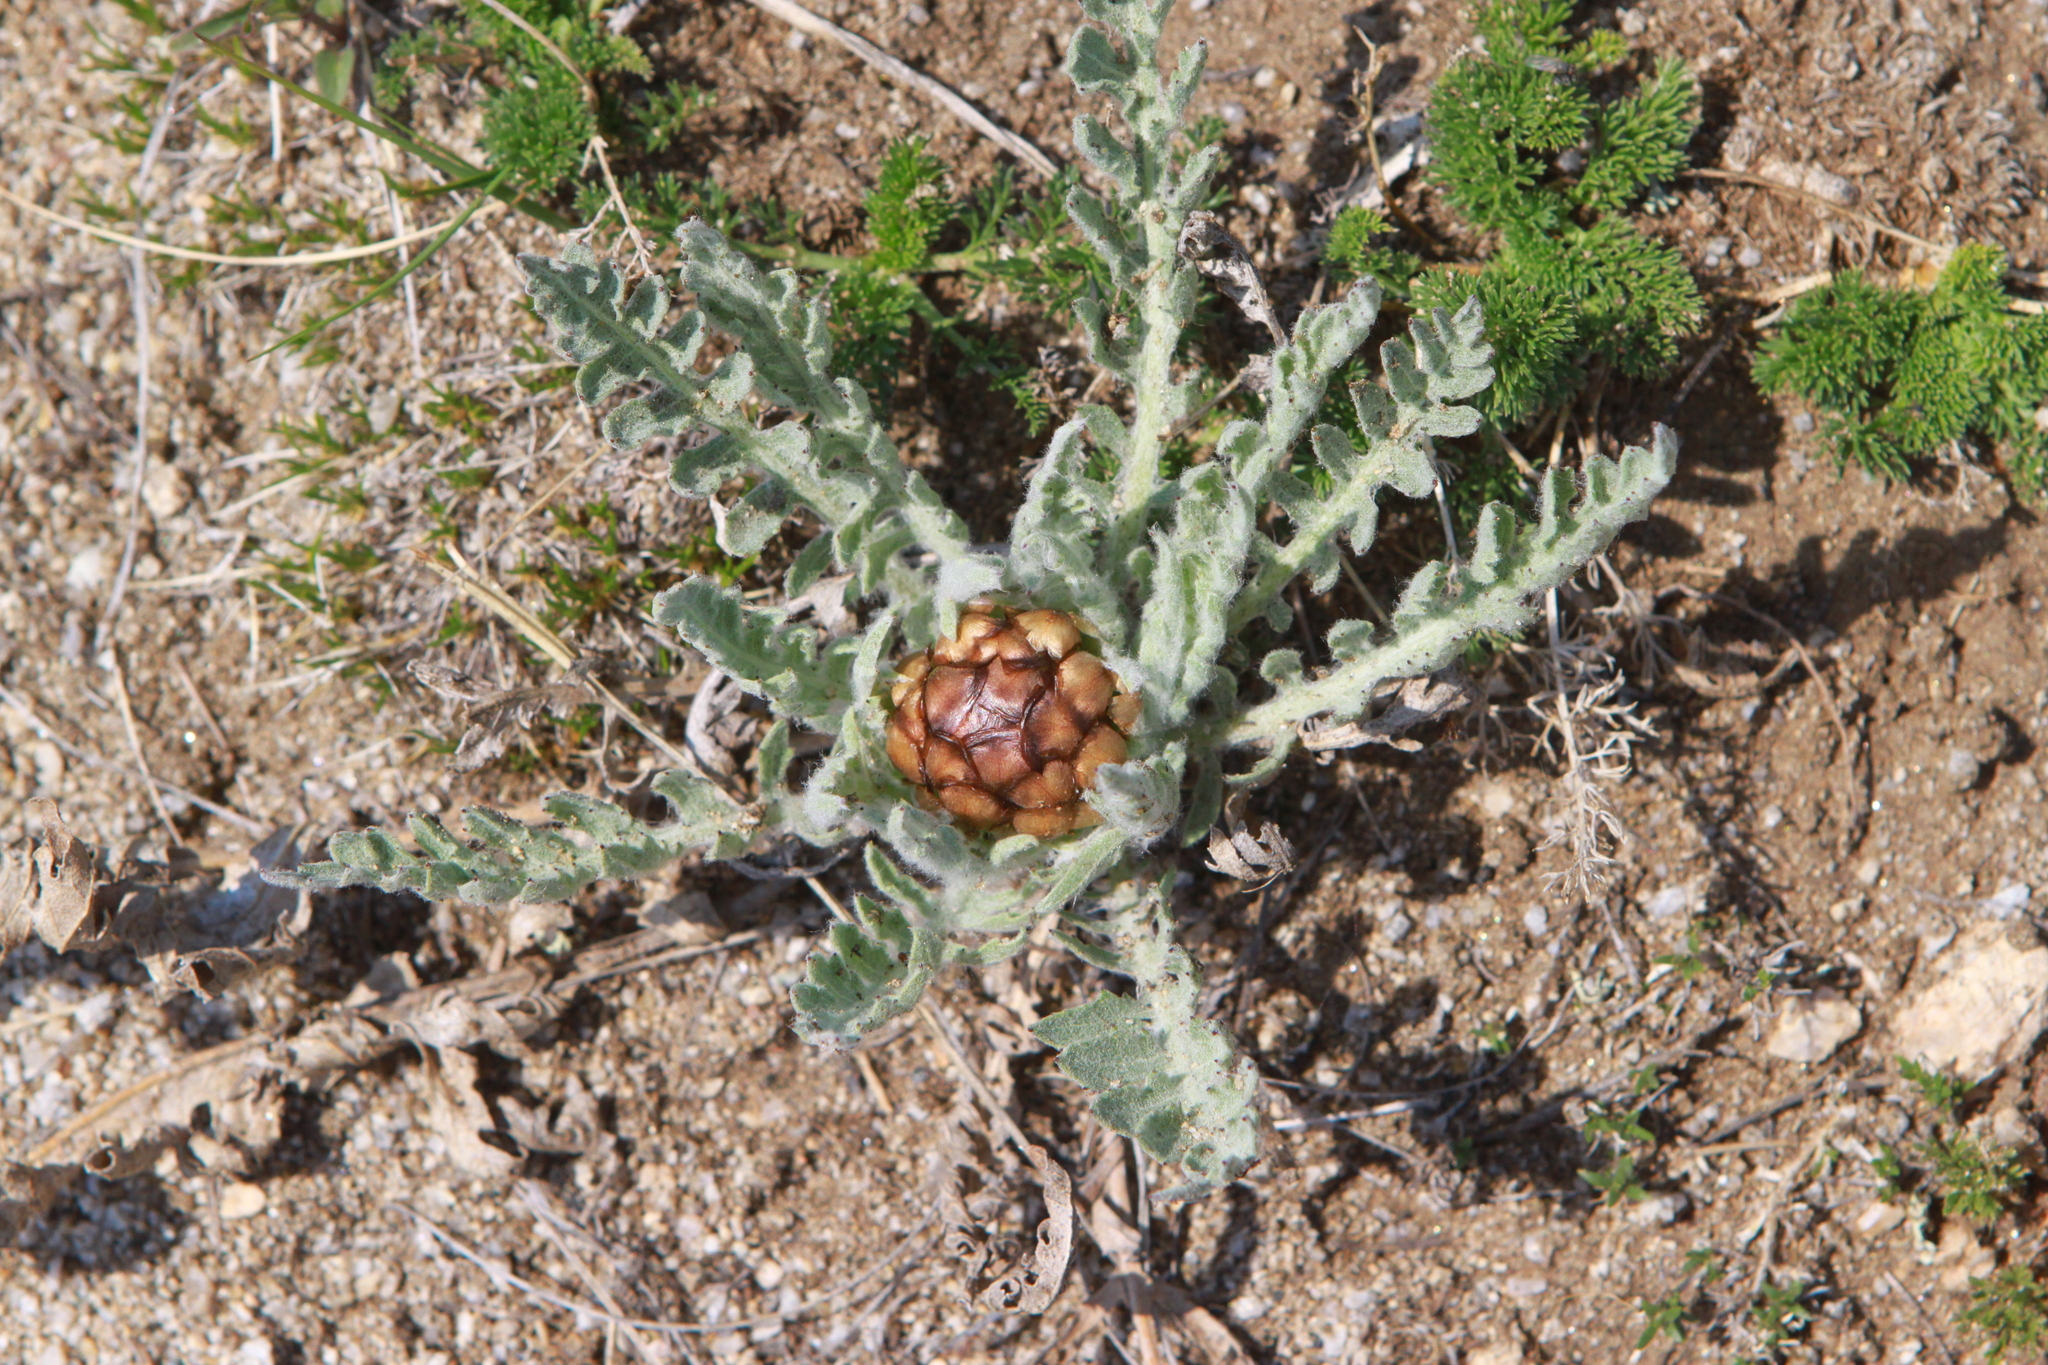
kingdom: Plantae
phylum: Tracheophyta
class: Magnoliopsida
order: Asterales
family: Asteraceae
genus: Leuzea
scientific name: Leuzea uniflora
